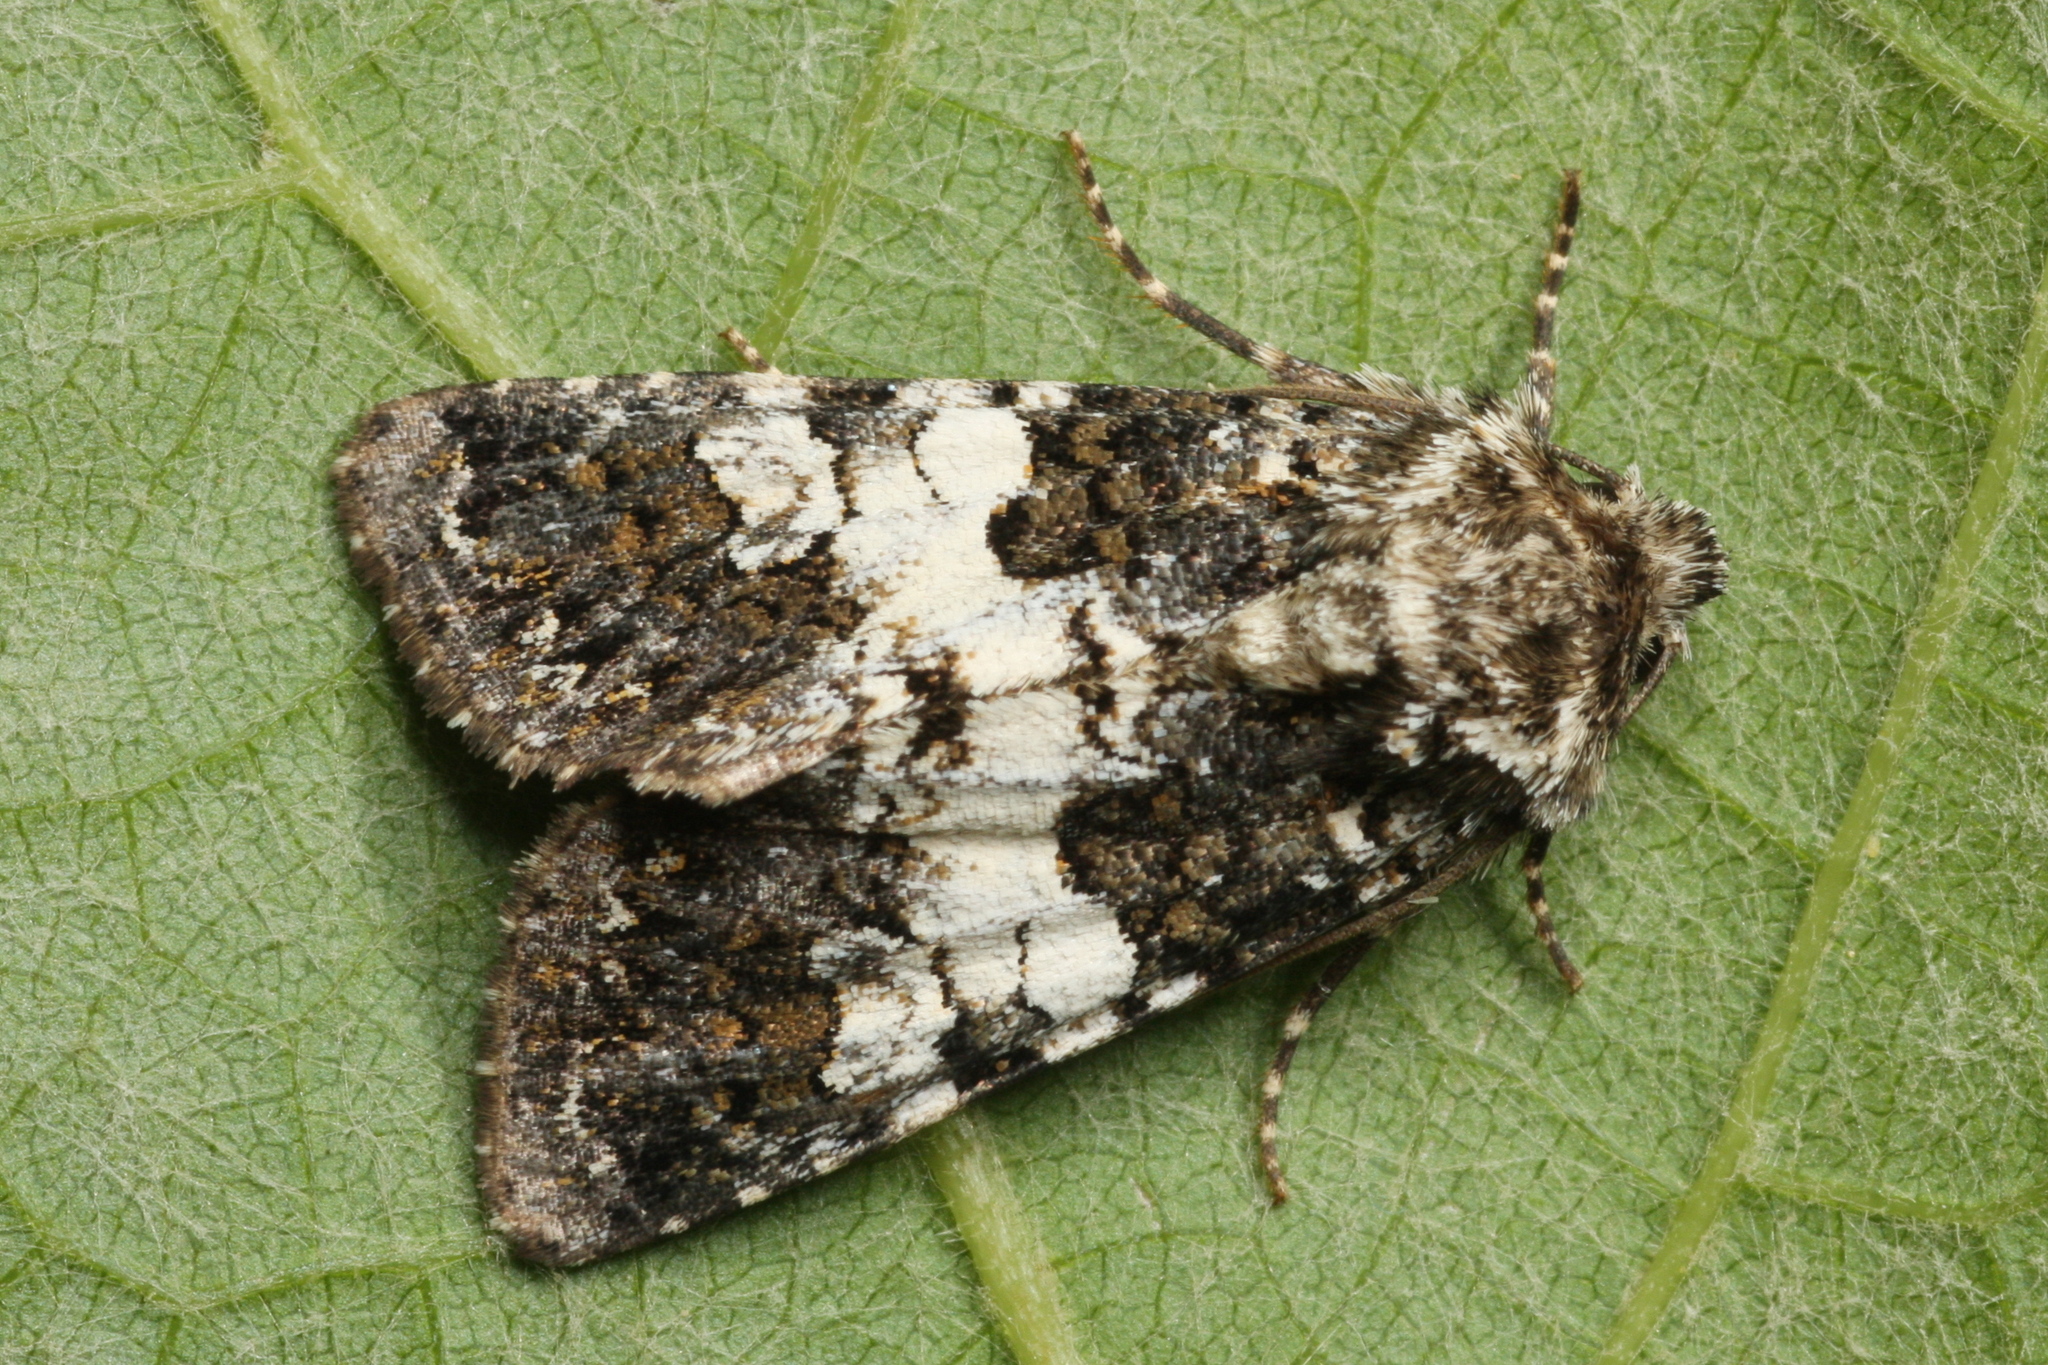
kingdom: Animalia
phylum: Arthropoda
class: Insecta
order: Lepidoptera
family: Noctuidae
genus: Hadena
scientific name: Hadena compta
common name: Varied coronet
